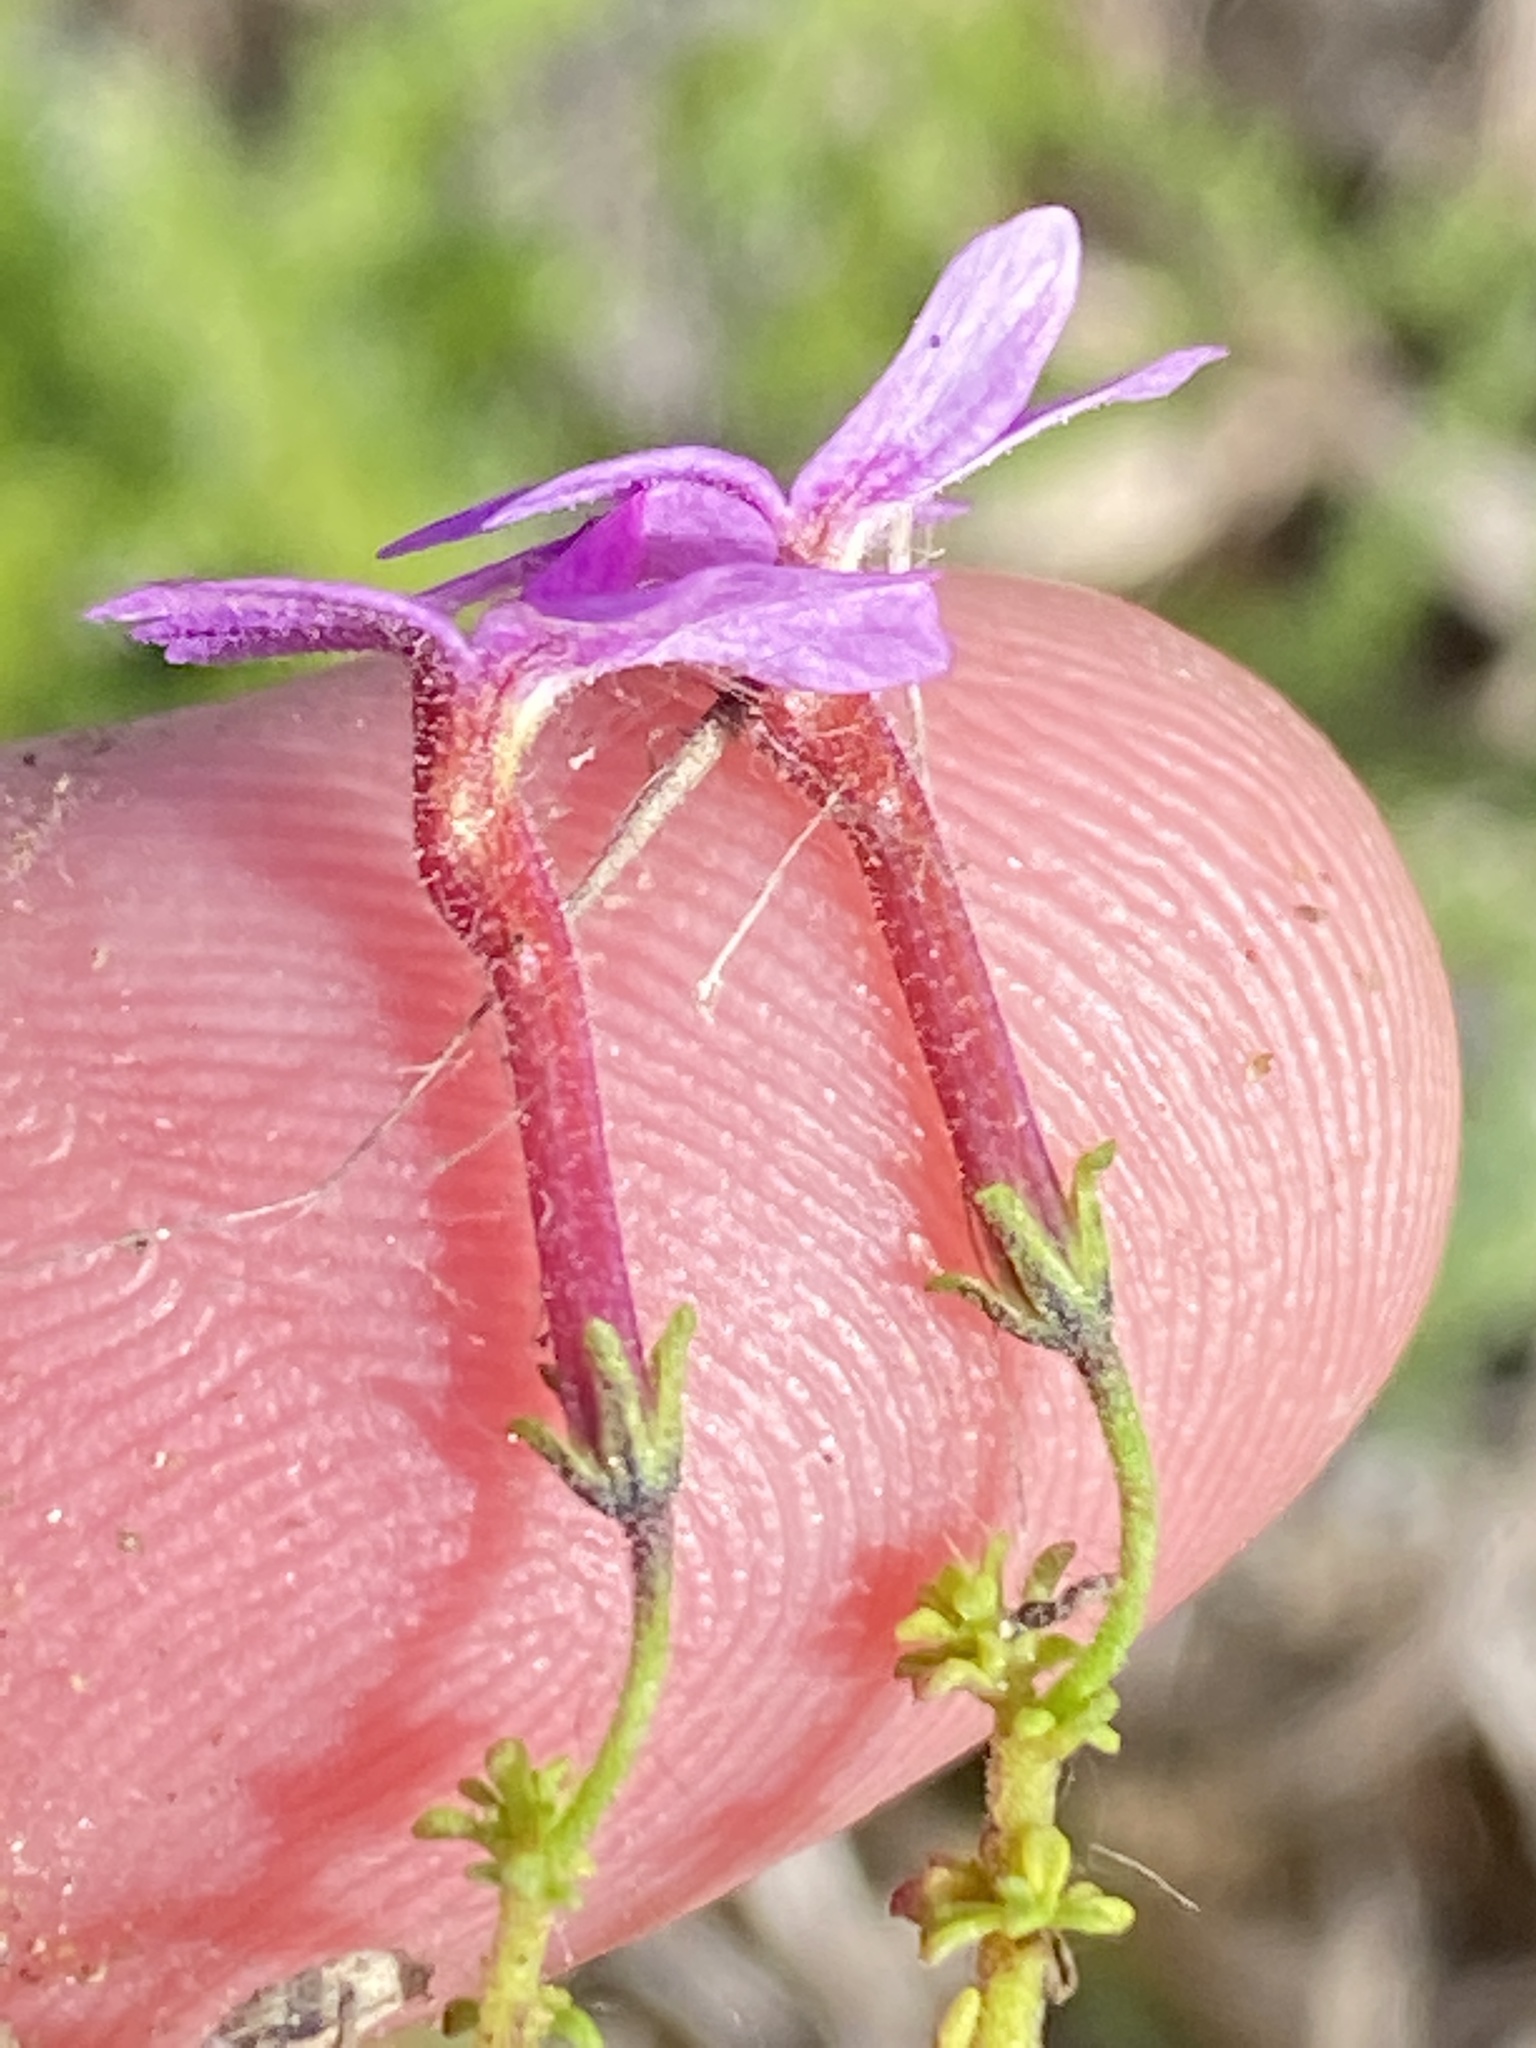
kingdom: Plantae
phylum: Tracheophyta
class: Magnoliopsida
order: Lamiales
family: Scrophulariaceae
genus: Jamesbrittenia
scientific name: Jamesbrittenia calciphila
